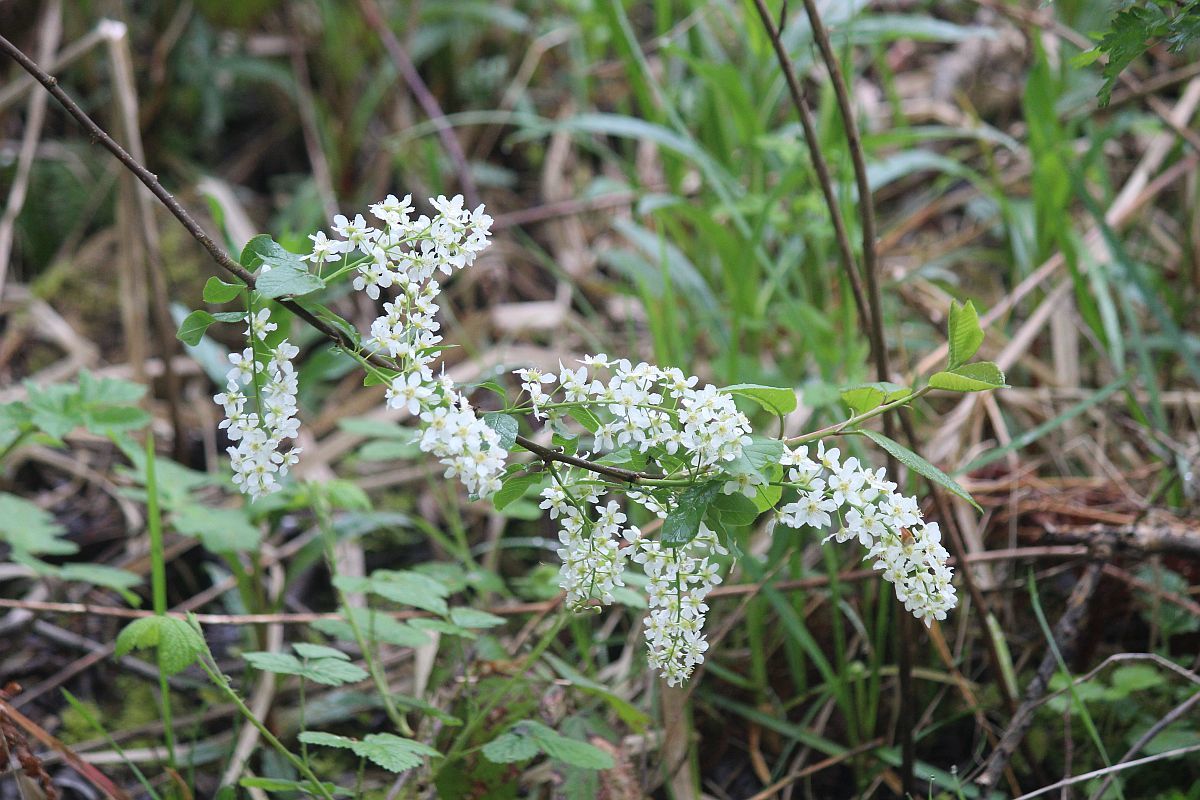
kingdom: Plantae
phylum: Tracheophyta
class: Magnoliopsida
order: Rosales
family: Rosaceae
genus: Prunus
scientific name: Prunus padus
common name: Bird cherry
